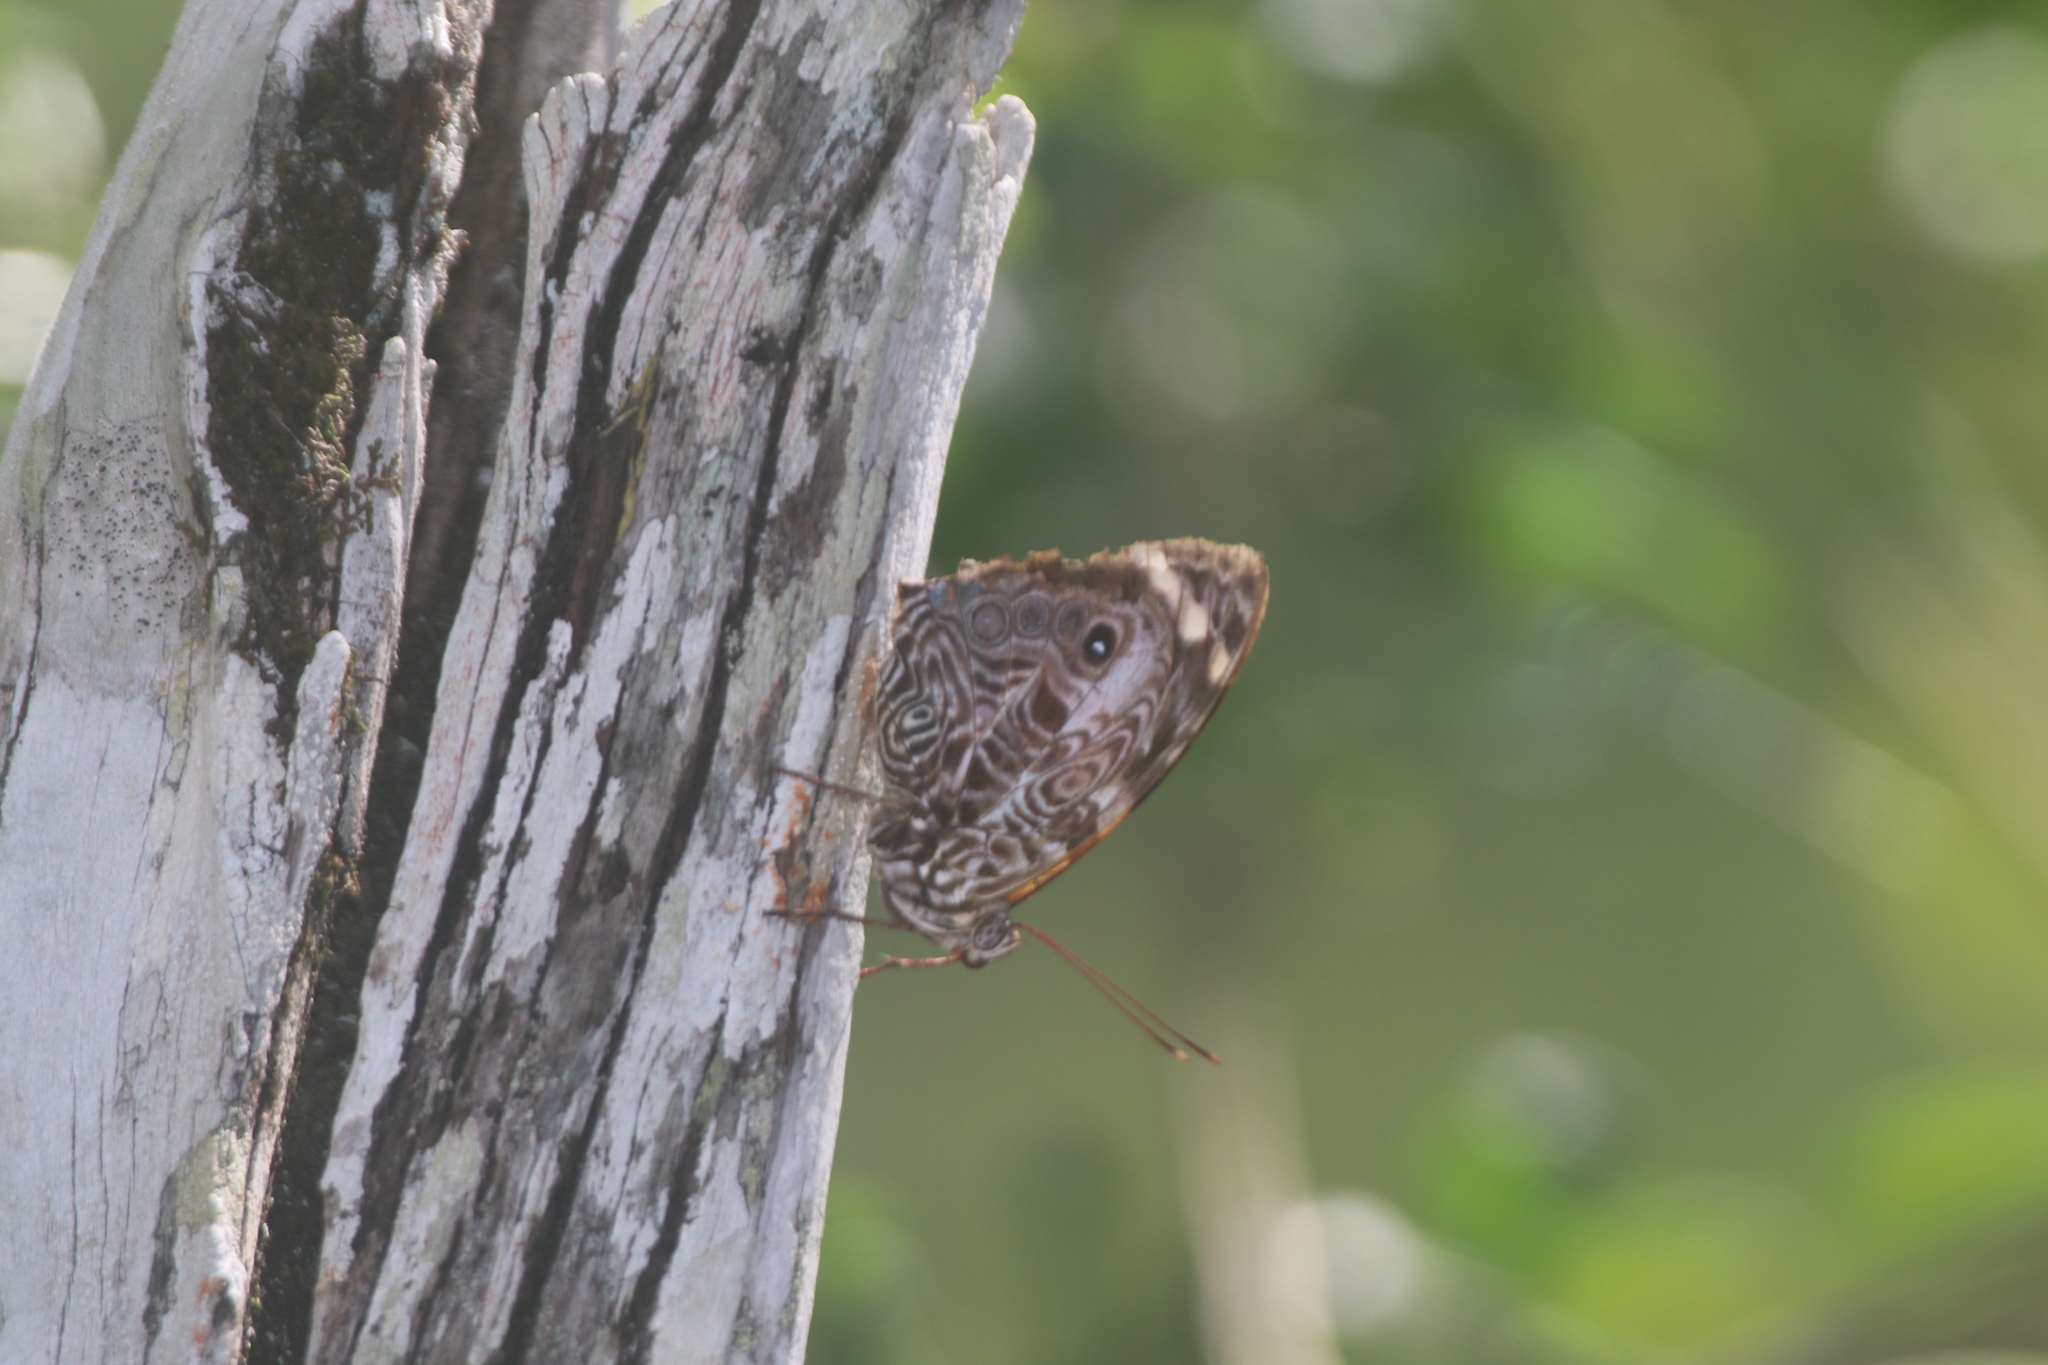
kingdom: Animalia
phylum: Arthropoda
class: Insecta
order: Lepidoptera
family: Nymphalidae
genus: Smyrna
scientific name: Smyrna blomfildia
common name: Blomfild's beauty
